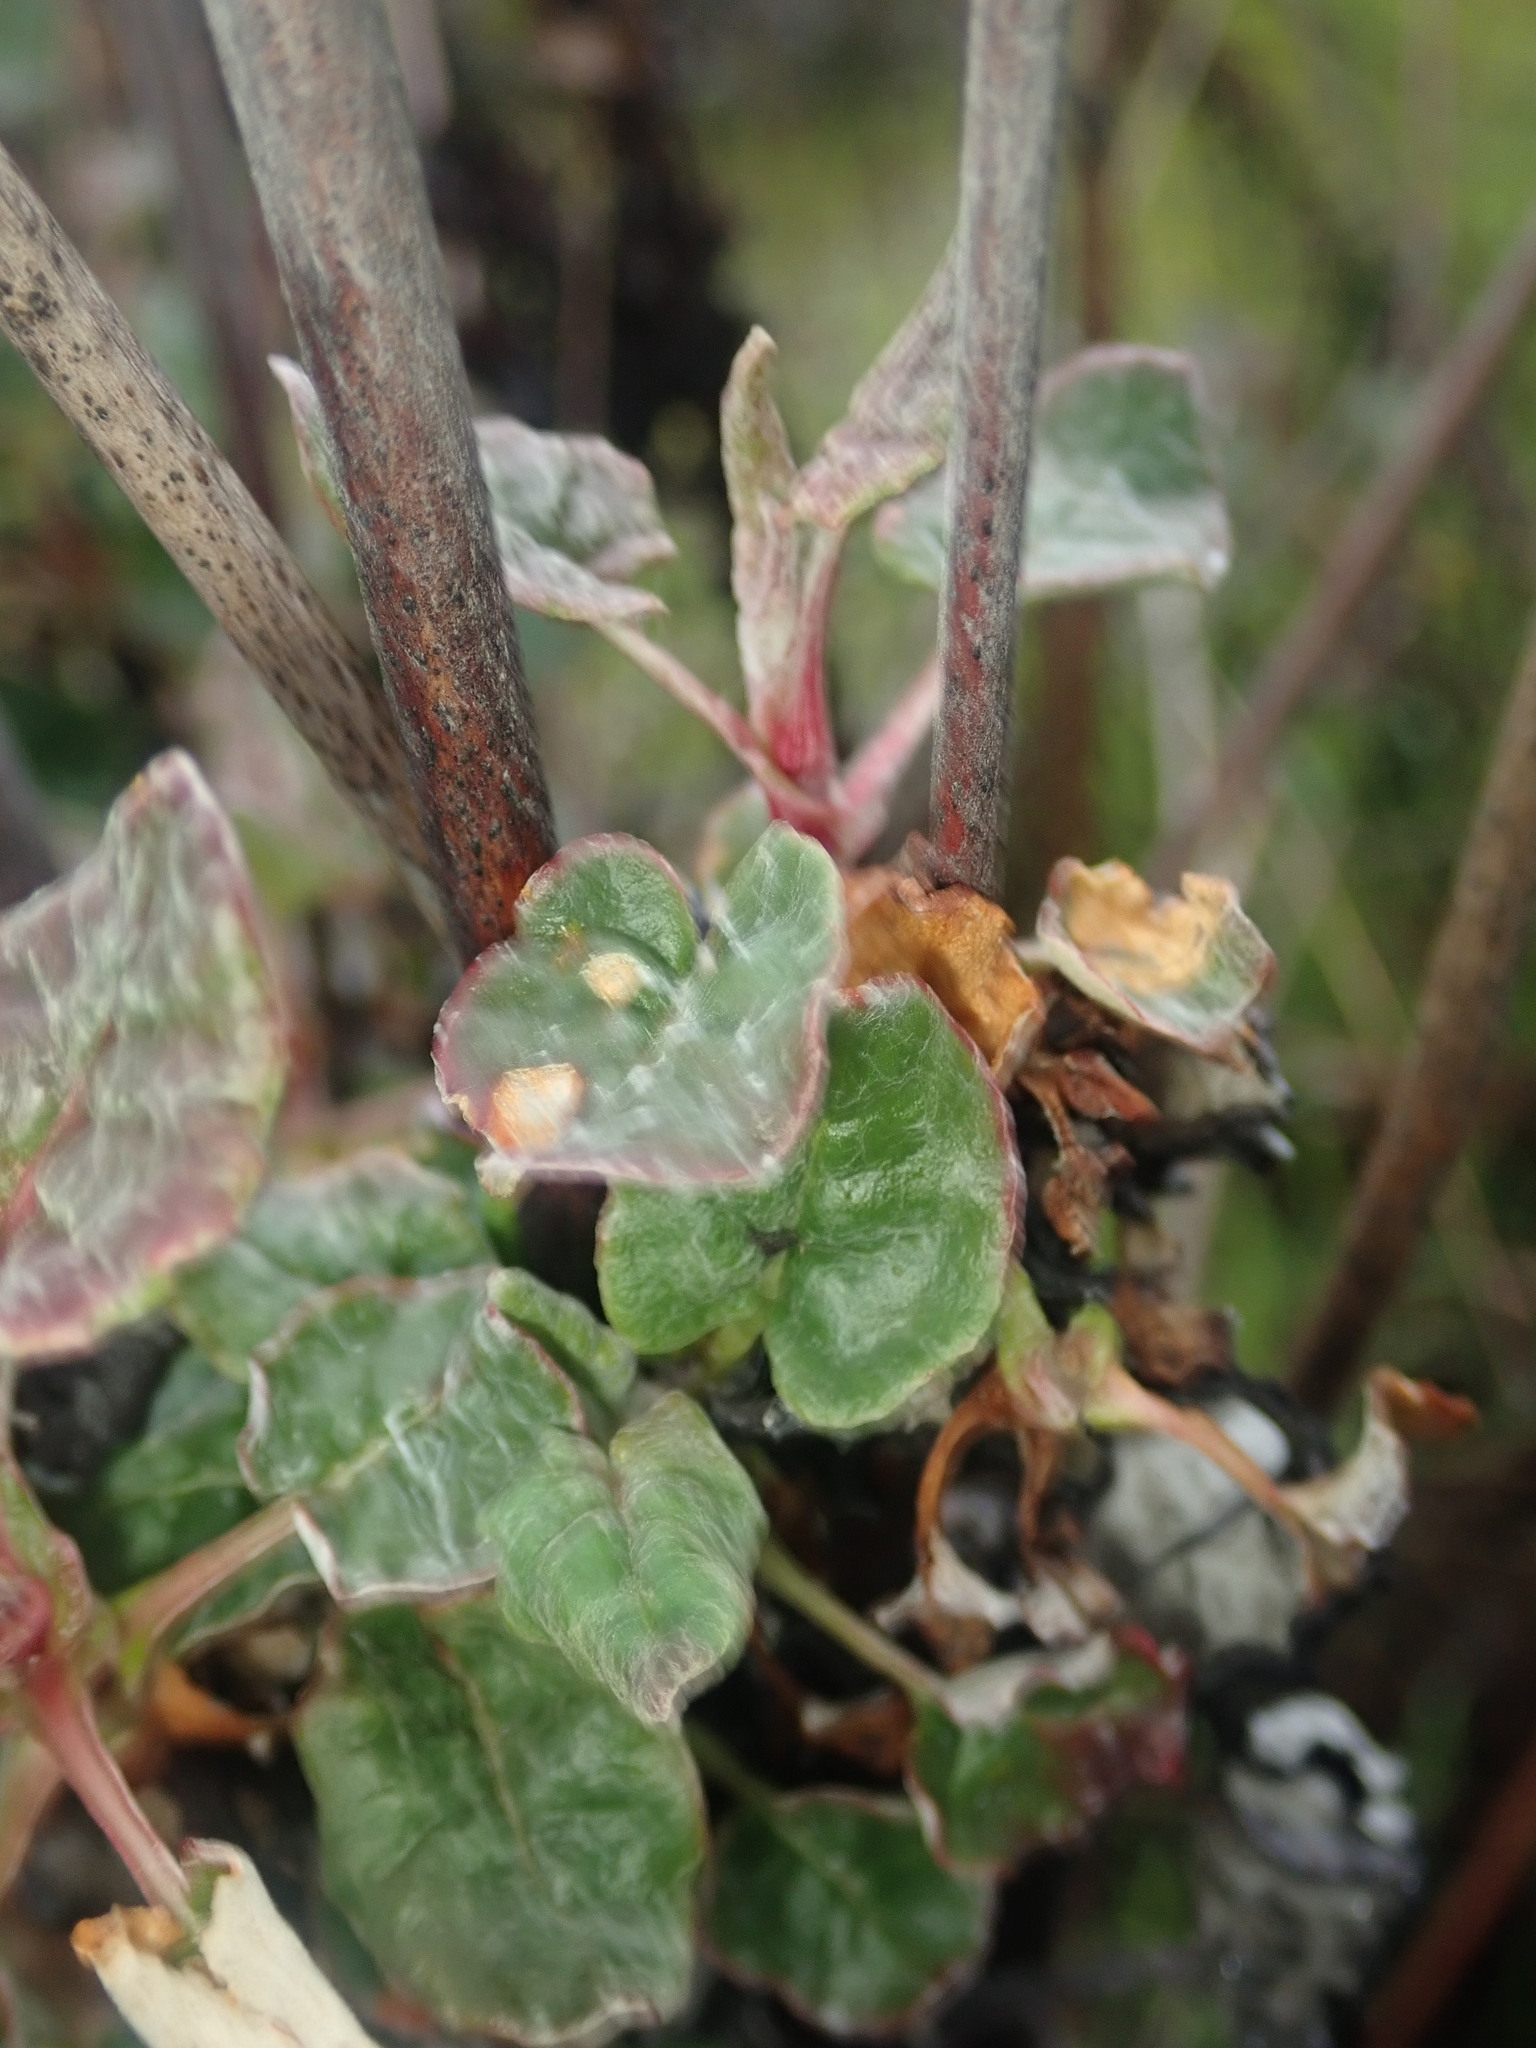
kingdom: Plantae
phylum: Tracheophyta
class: Magnoliopsida
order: Caryophyllales
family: Polygonaceae
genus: Eriogonum
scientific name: Eriogonum nudum
